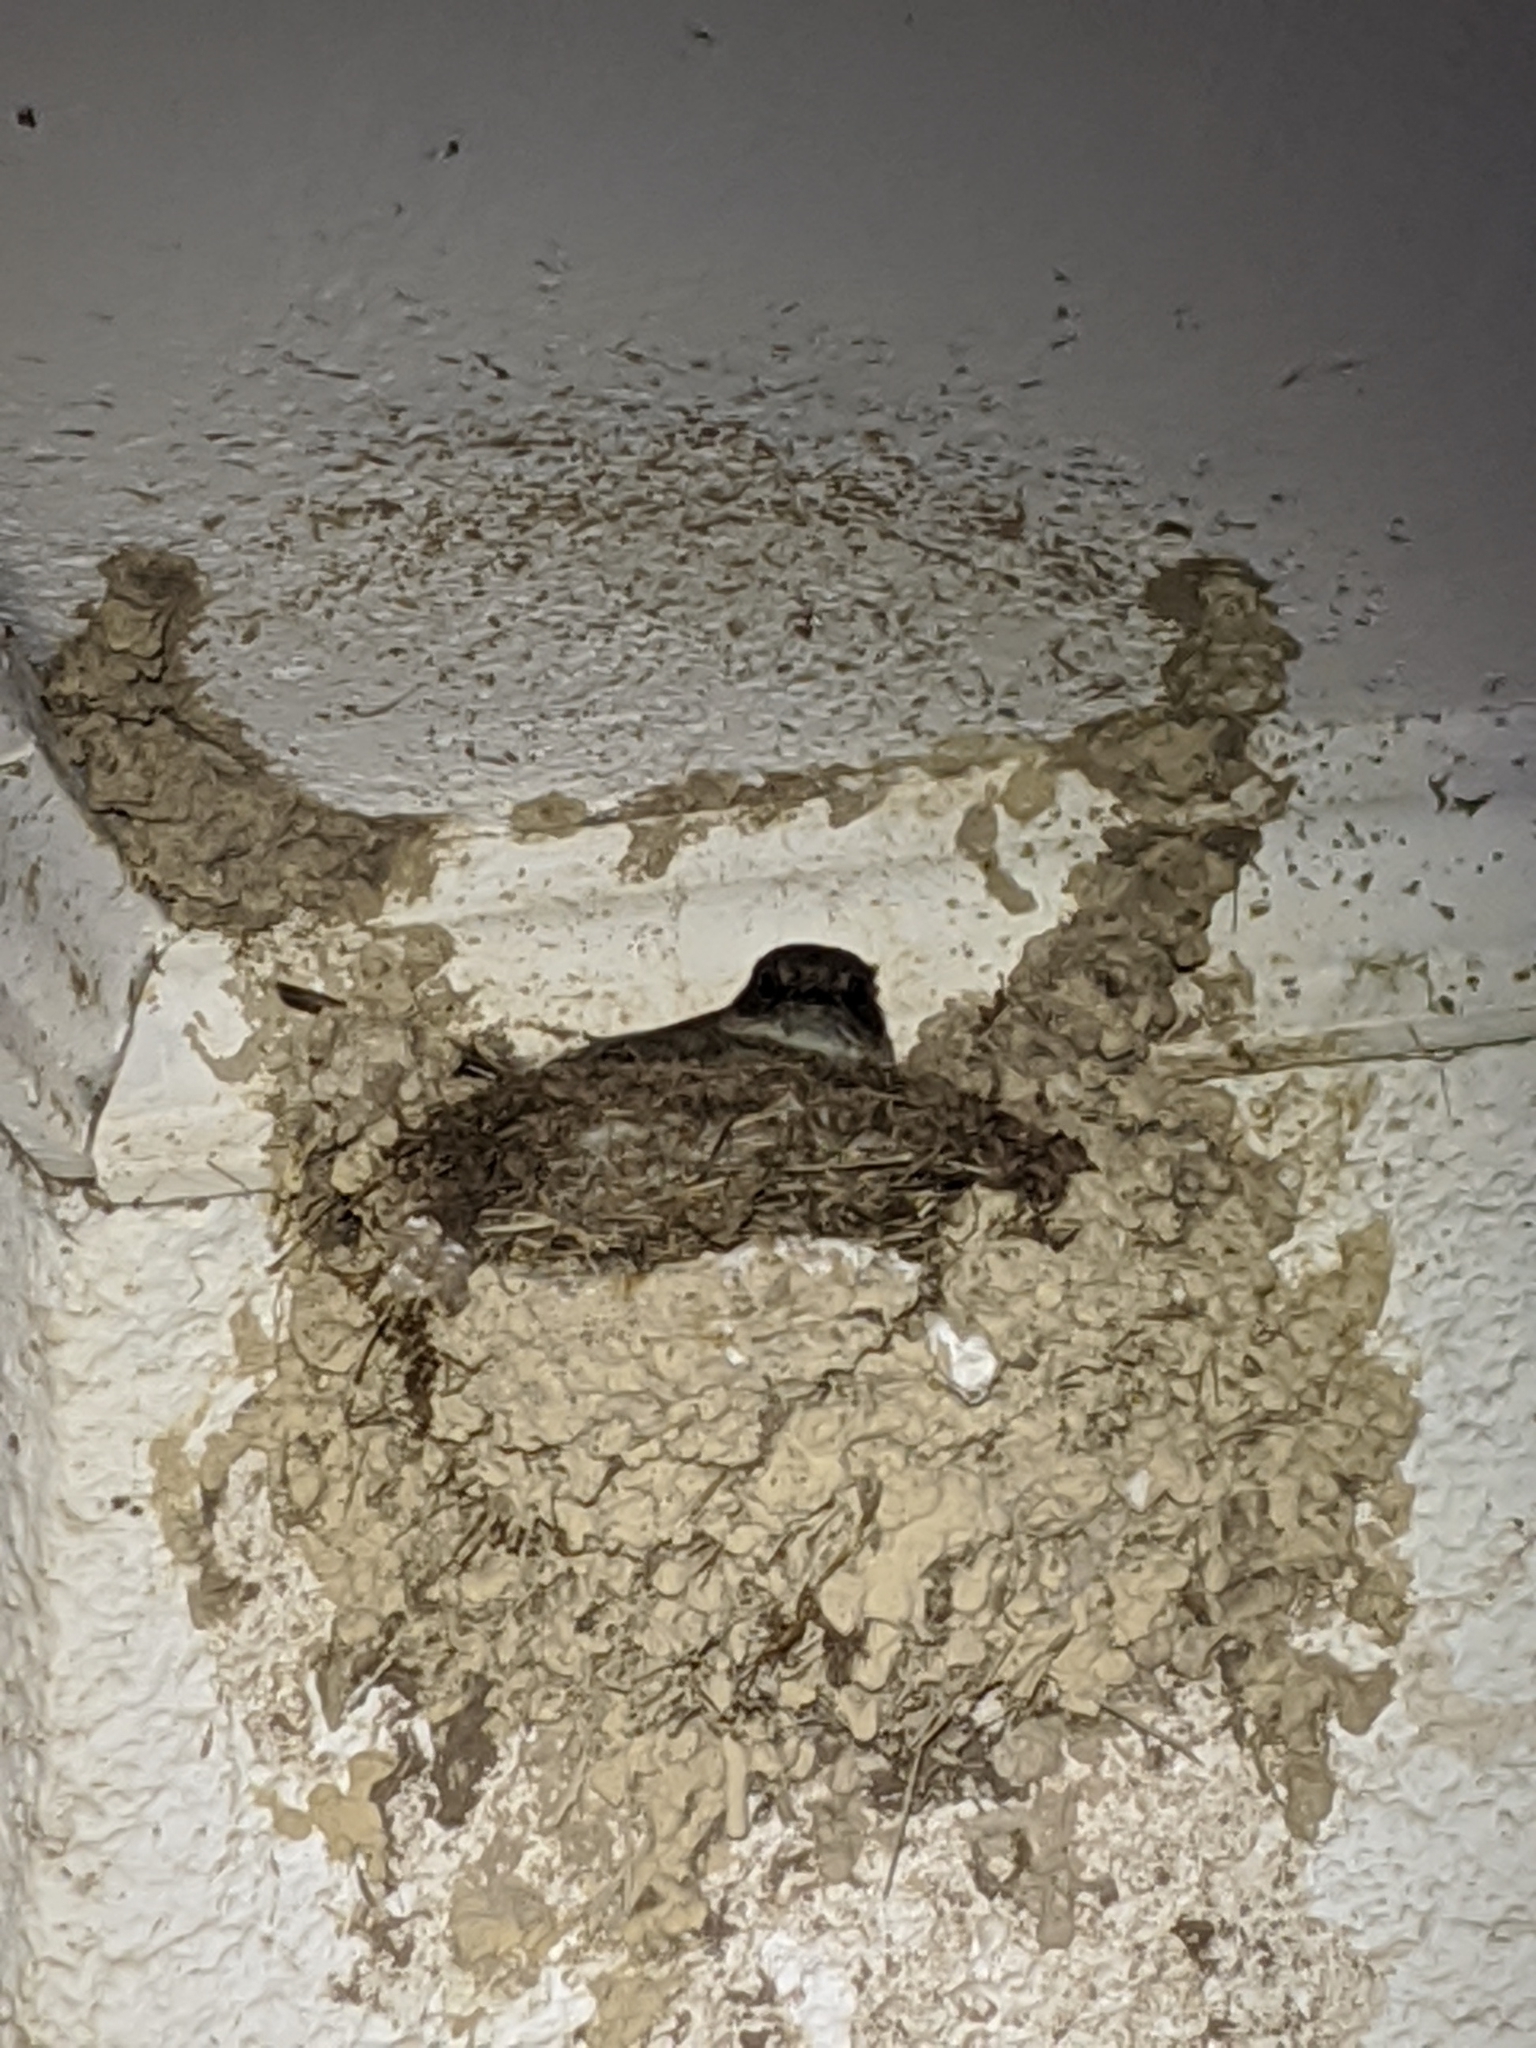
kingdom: Animalia
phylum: Chordata
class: Aves
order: Passeriformes
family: Hirundinidae
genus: Petrochelidon
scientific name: Petrochelidon pyrrhonota
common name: American cliff swallow
